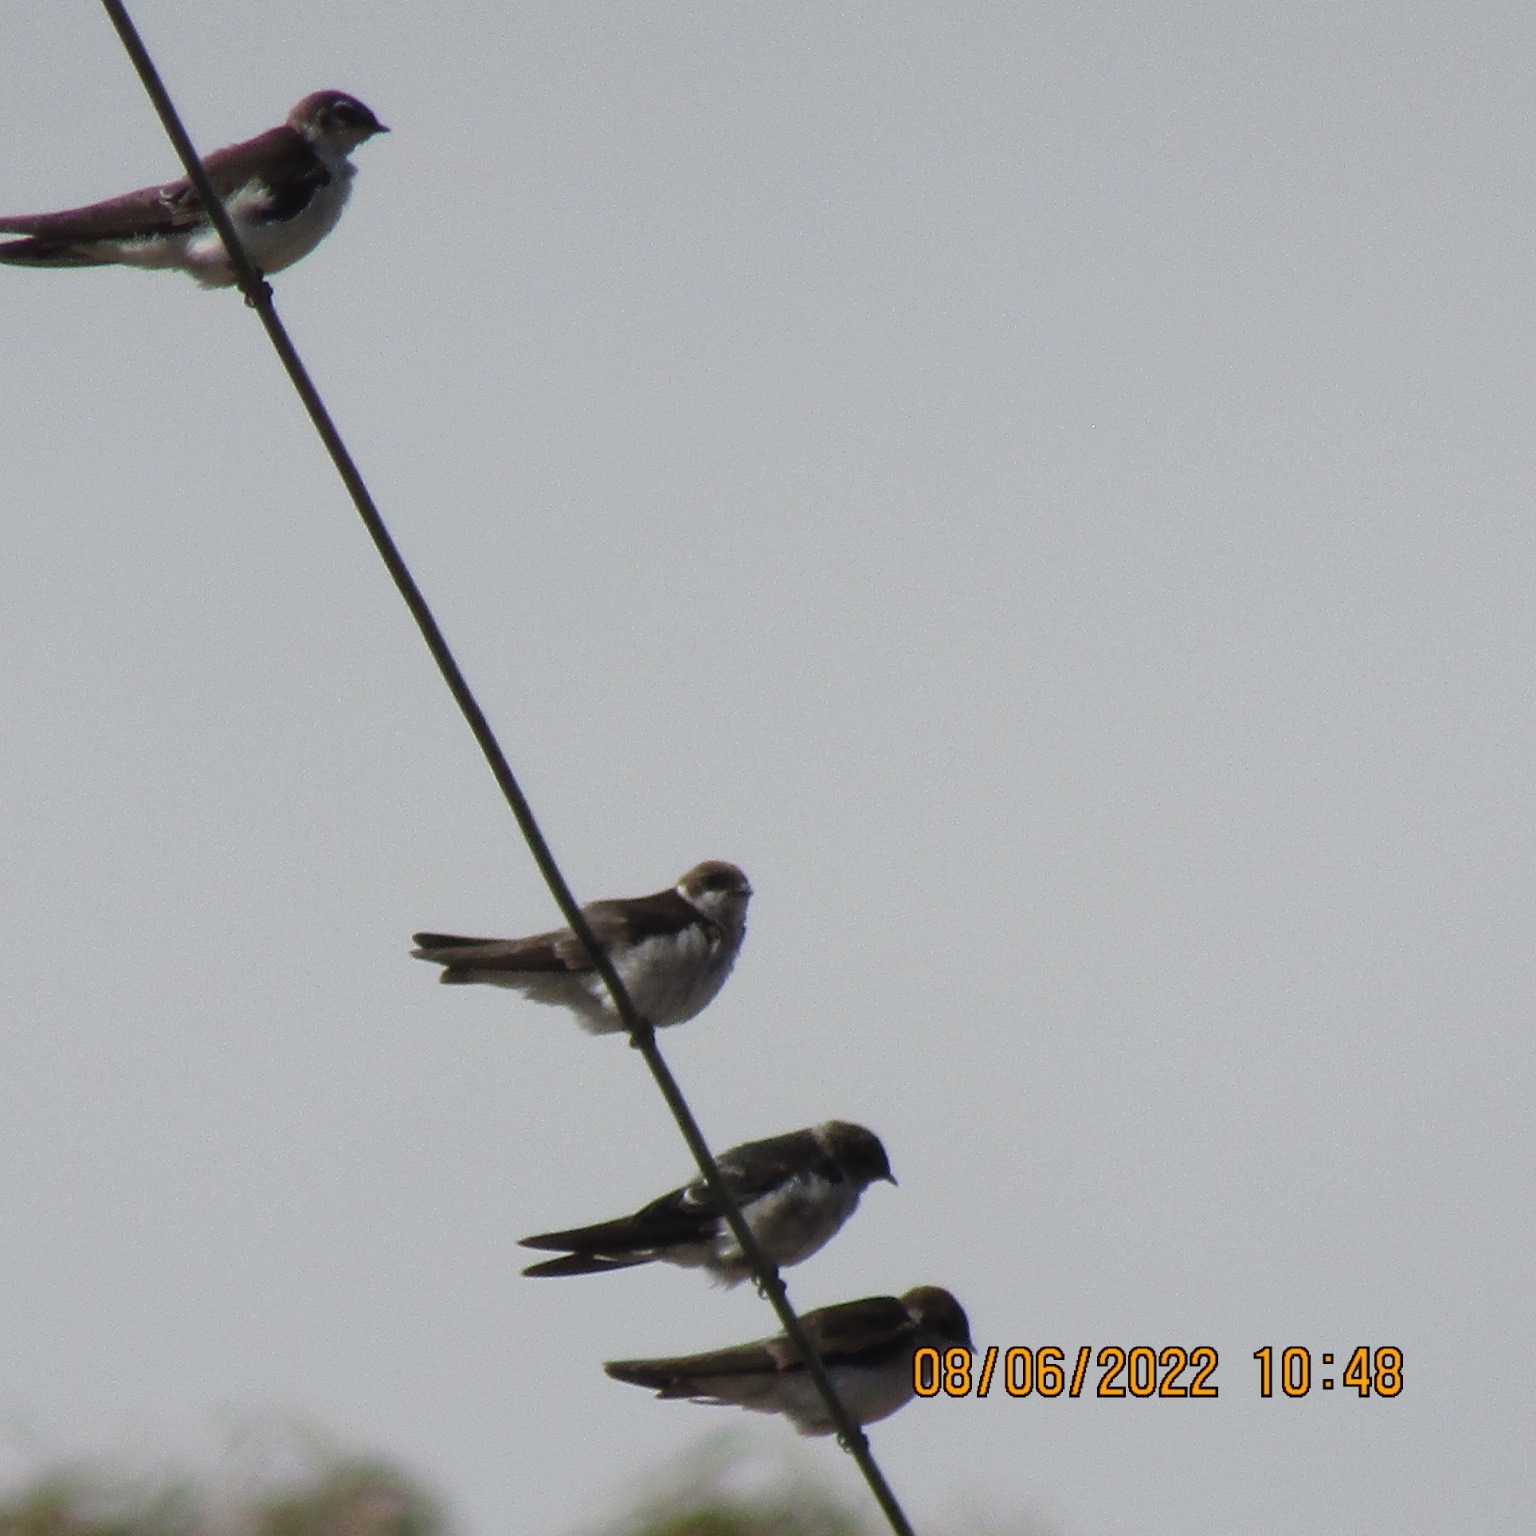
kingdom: Animalia
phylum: Chordata
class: Aves
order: Passeriformes
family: Hirundinidae
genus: Tachycineta
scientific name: Tachycineta bicolor
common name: Tree swallow
